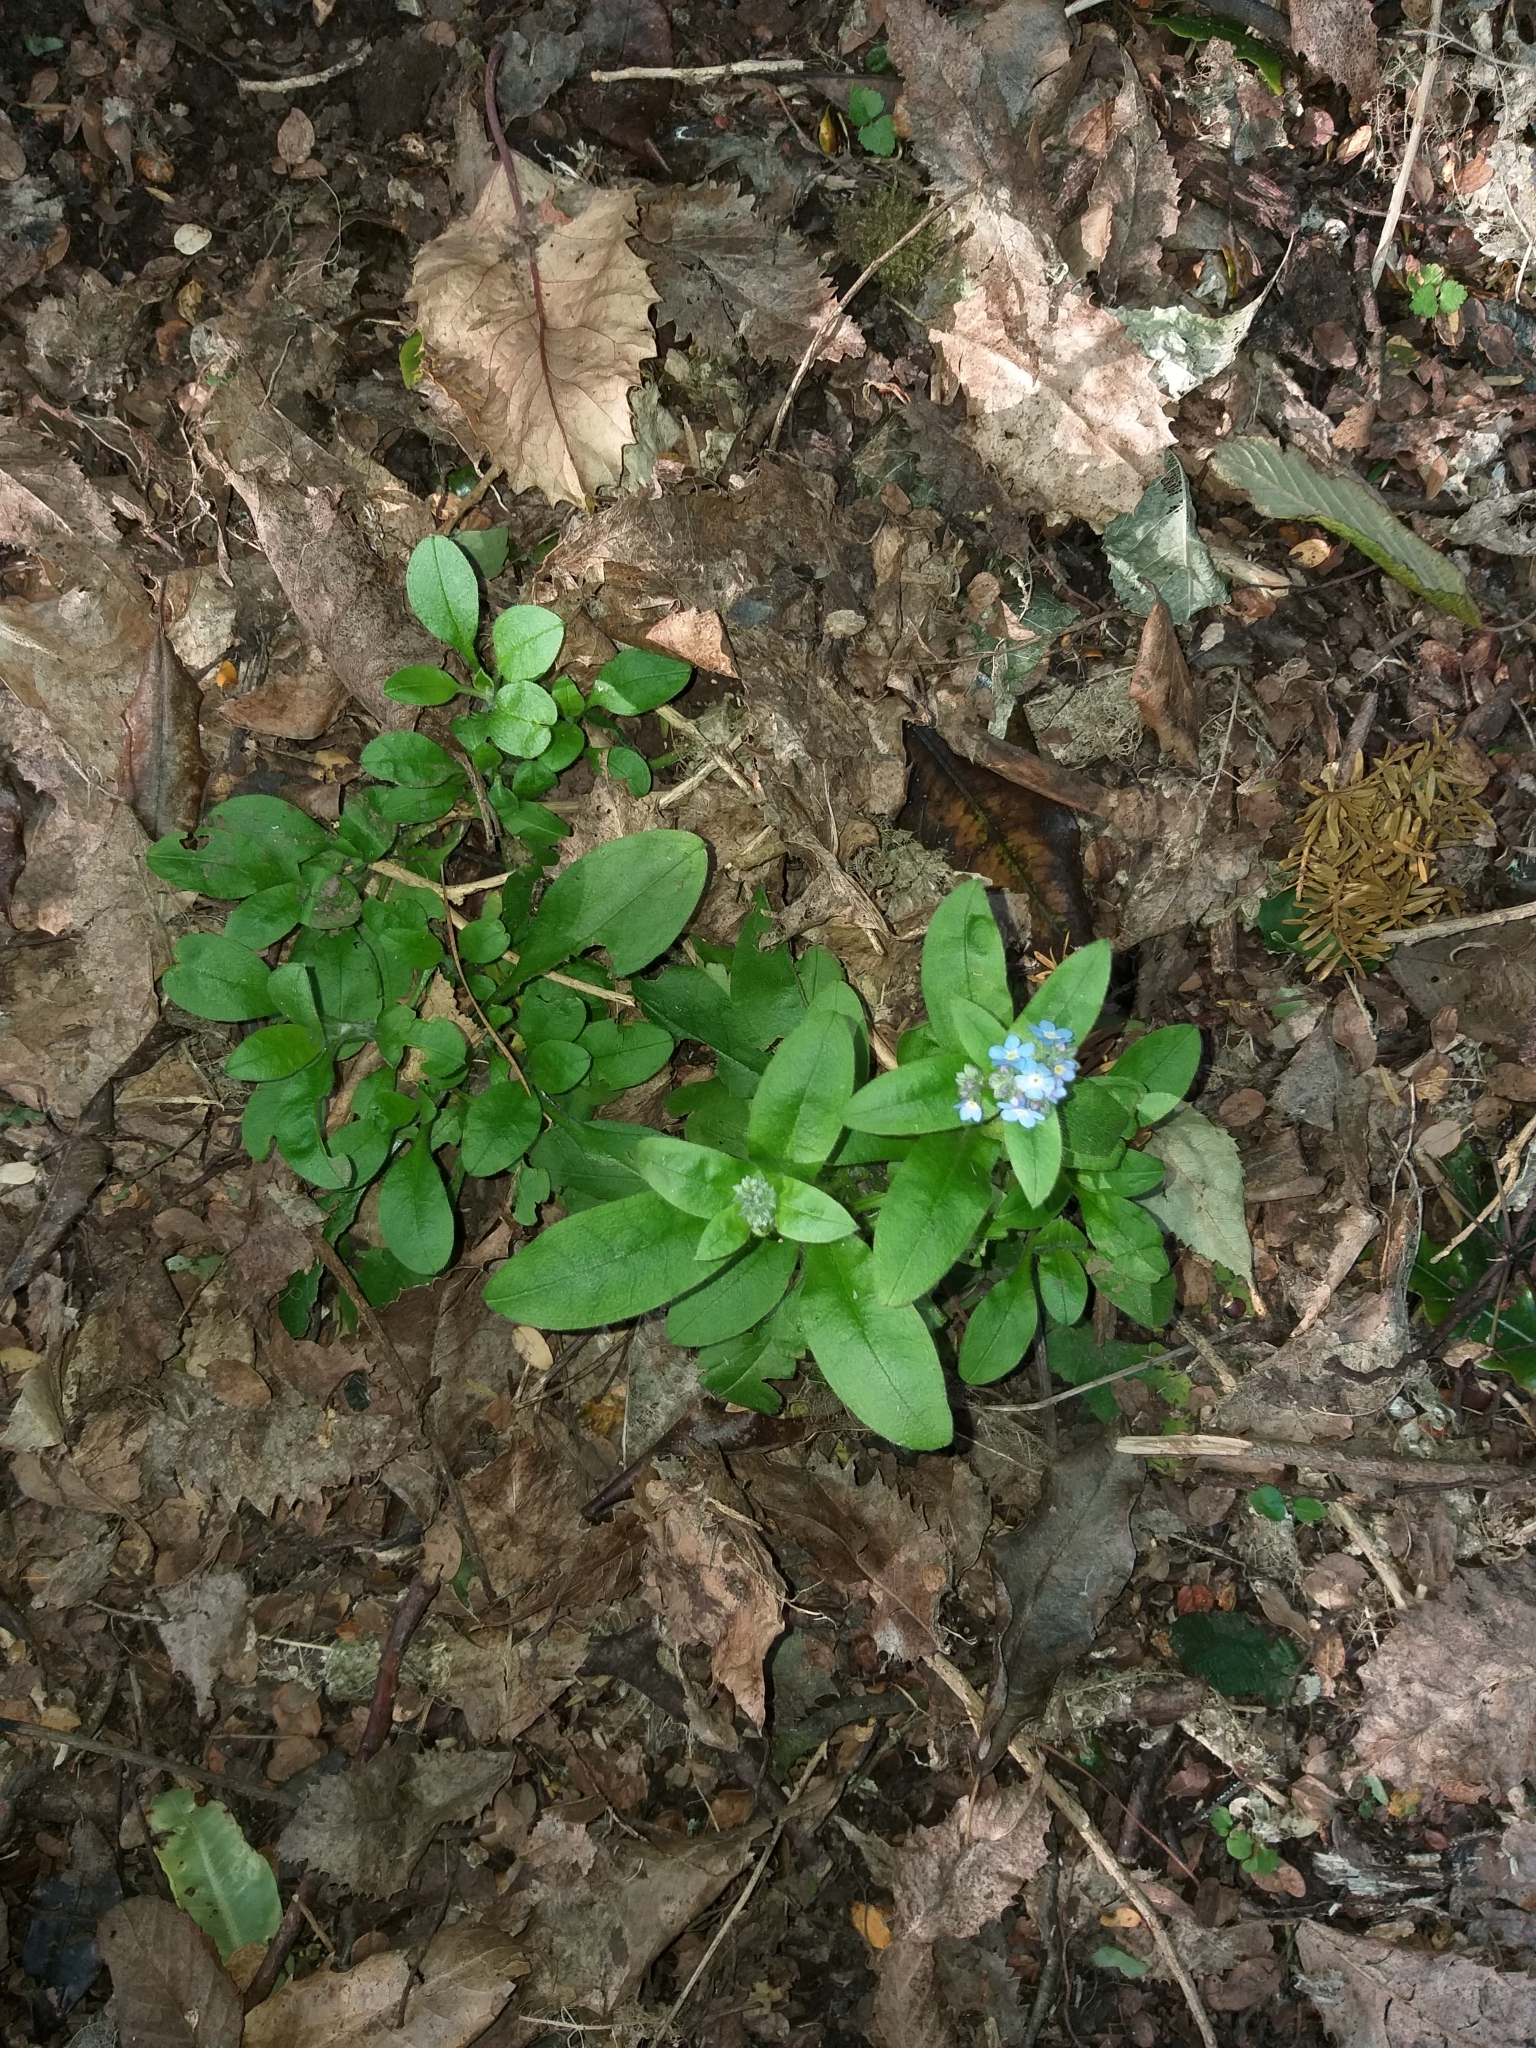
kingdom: Plantae
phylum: Tracheophyta
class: Magnoliopsida
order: Boraginales
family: Boraginaceae
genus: Myosotis
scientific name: Myosotis sylvatica
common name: Wood forget-me-not
